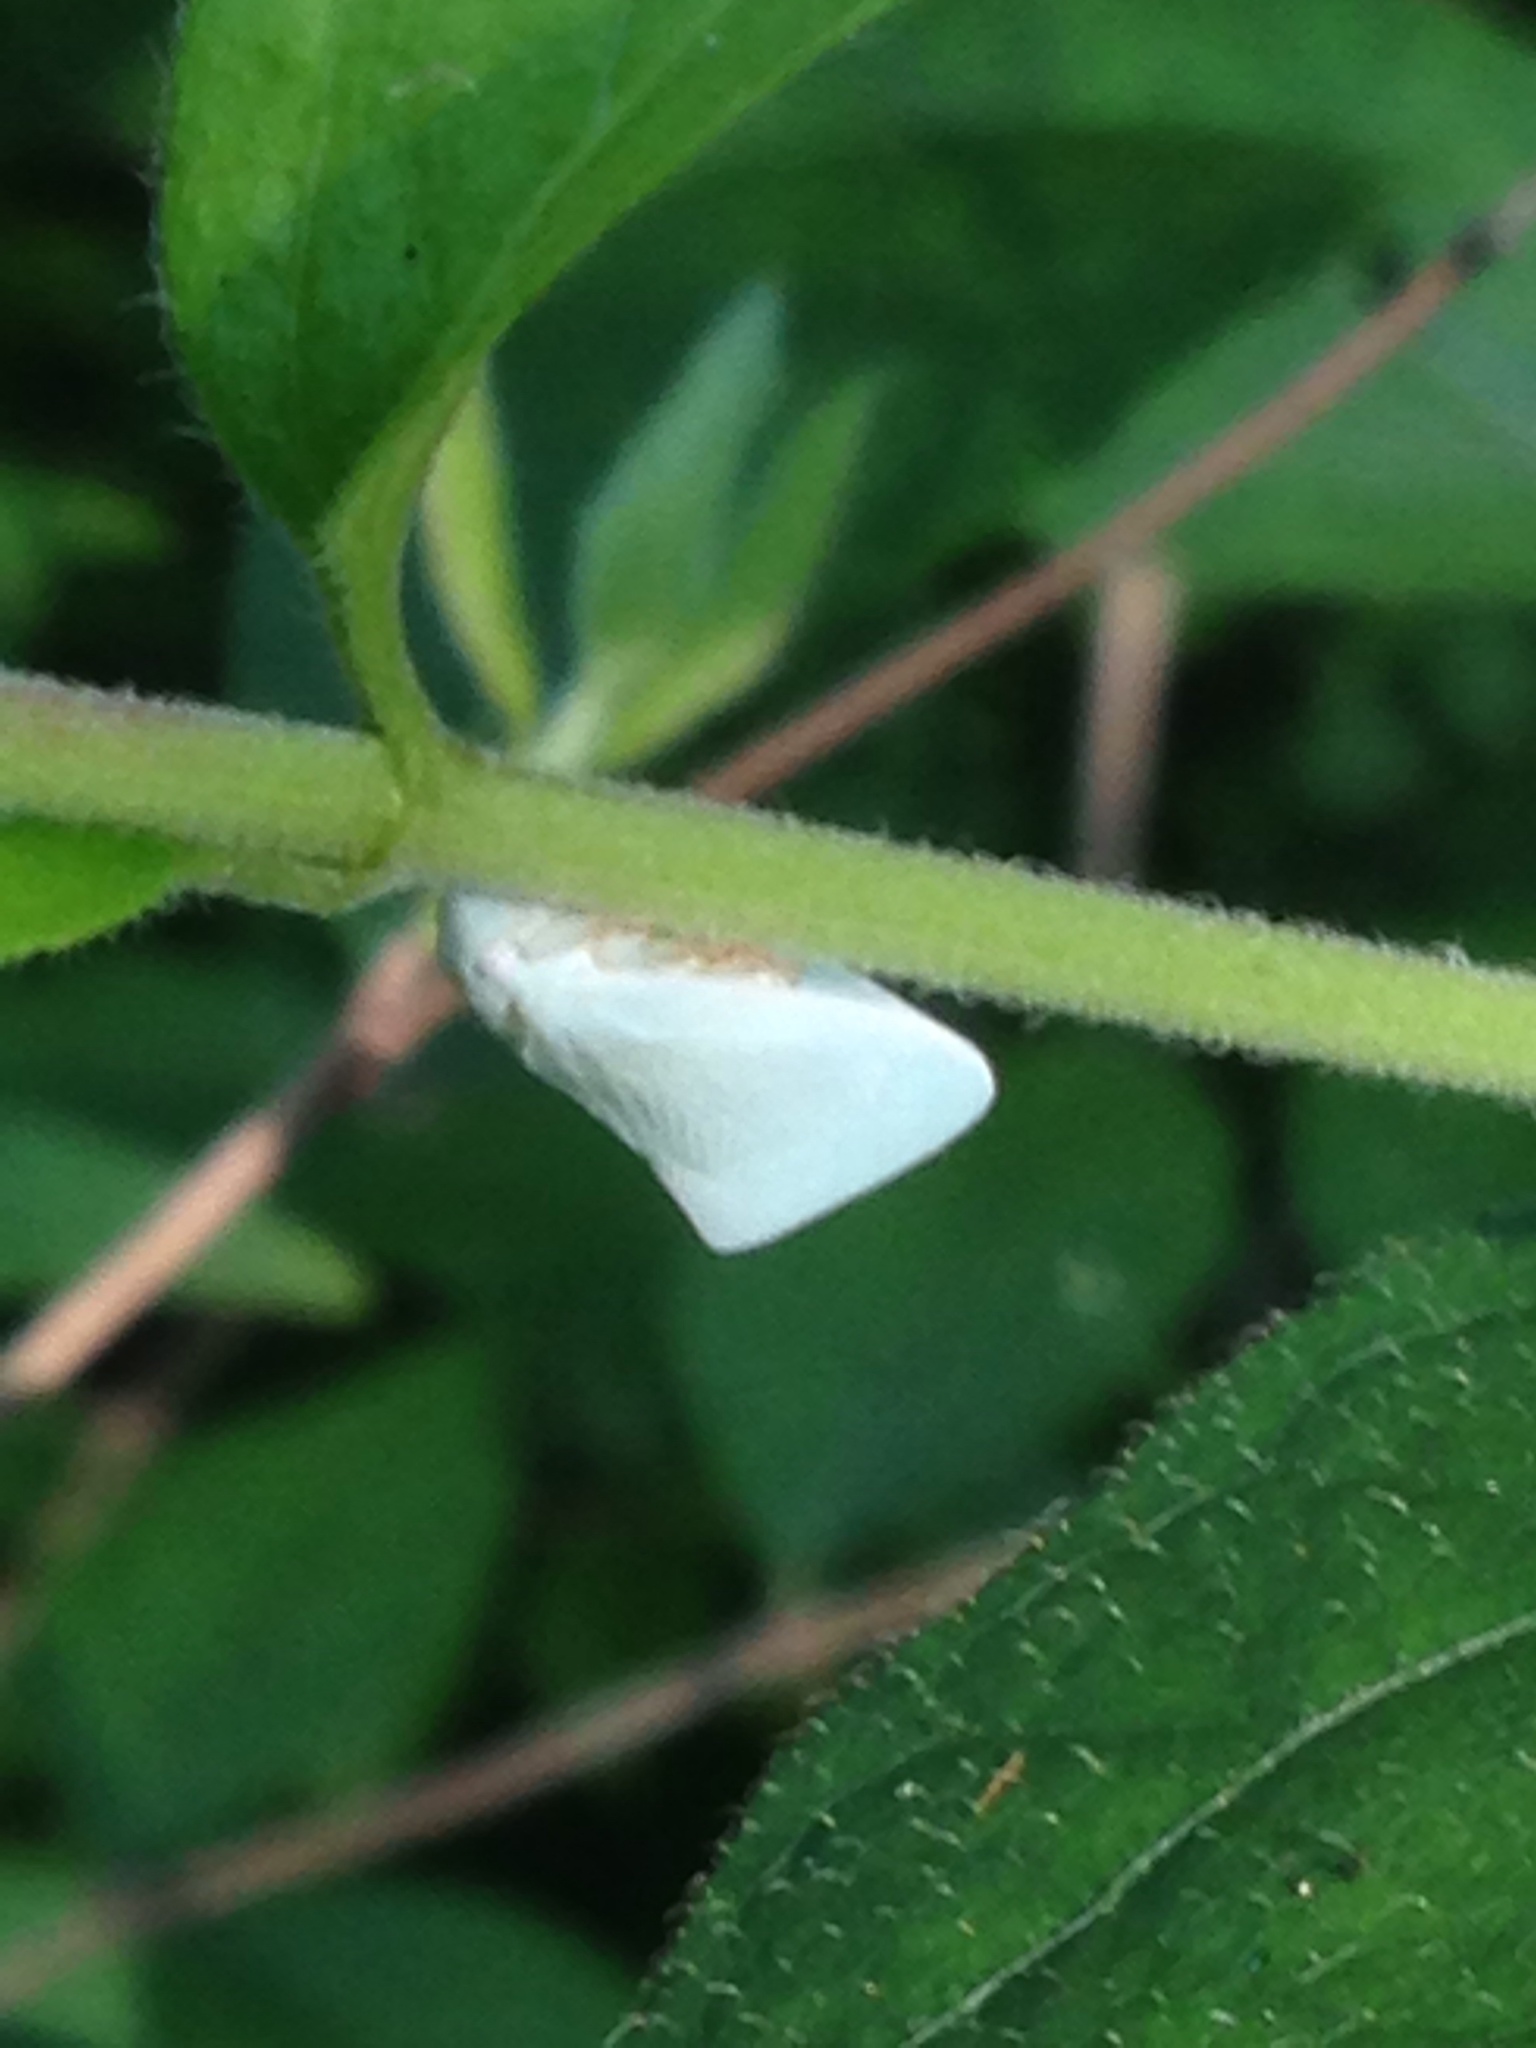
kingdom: Animalia
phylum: Arthropoda
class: Insecta
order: Hemiptera
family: Flatidae
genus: Flatormenis
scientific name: Flatormenis proxima
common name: Northern flatid planthopper
